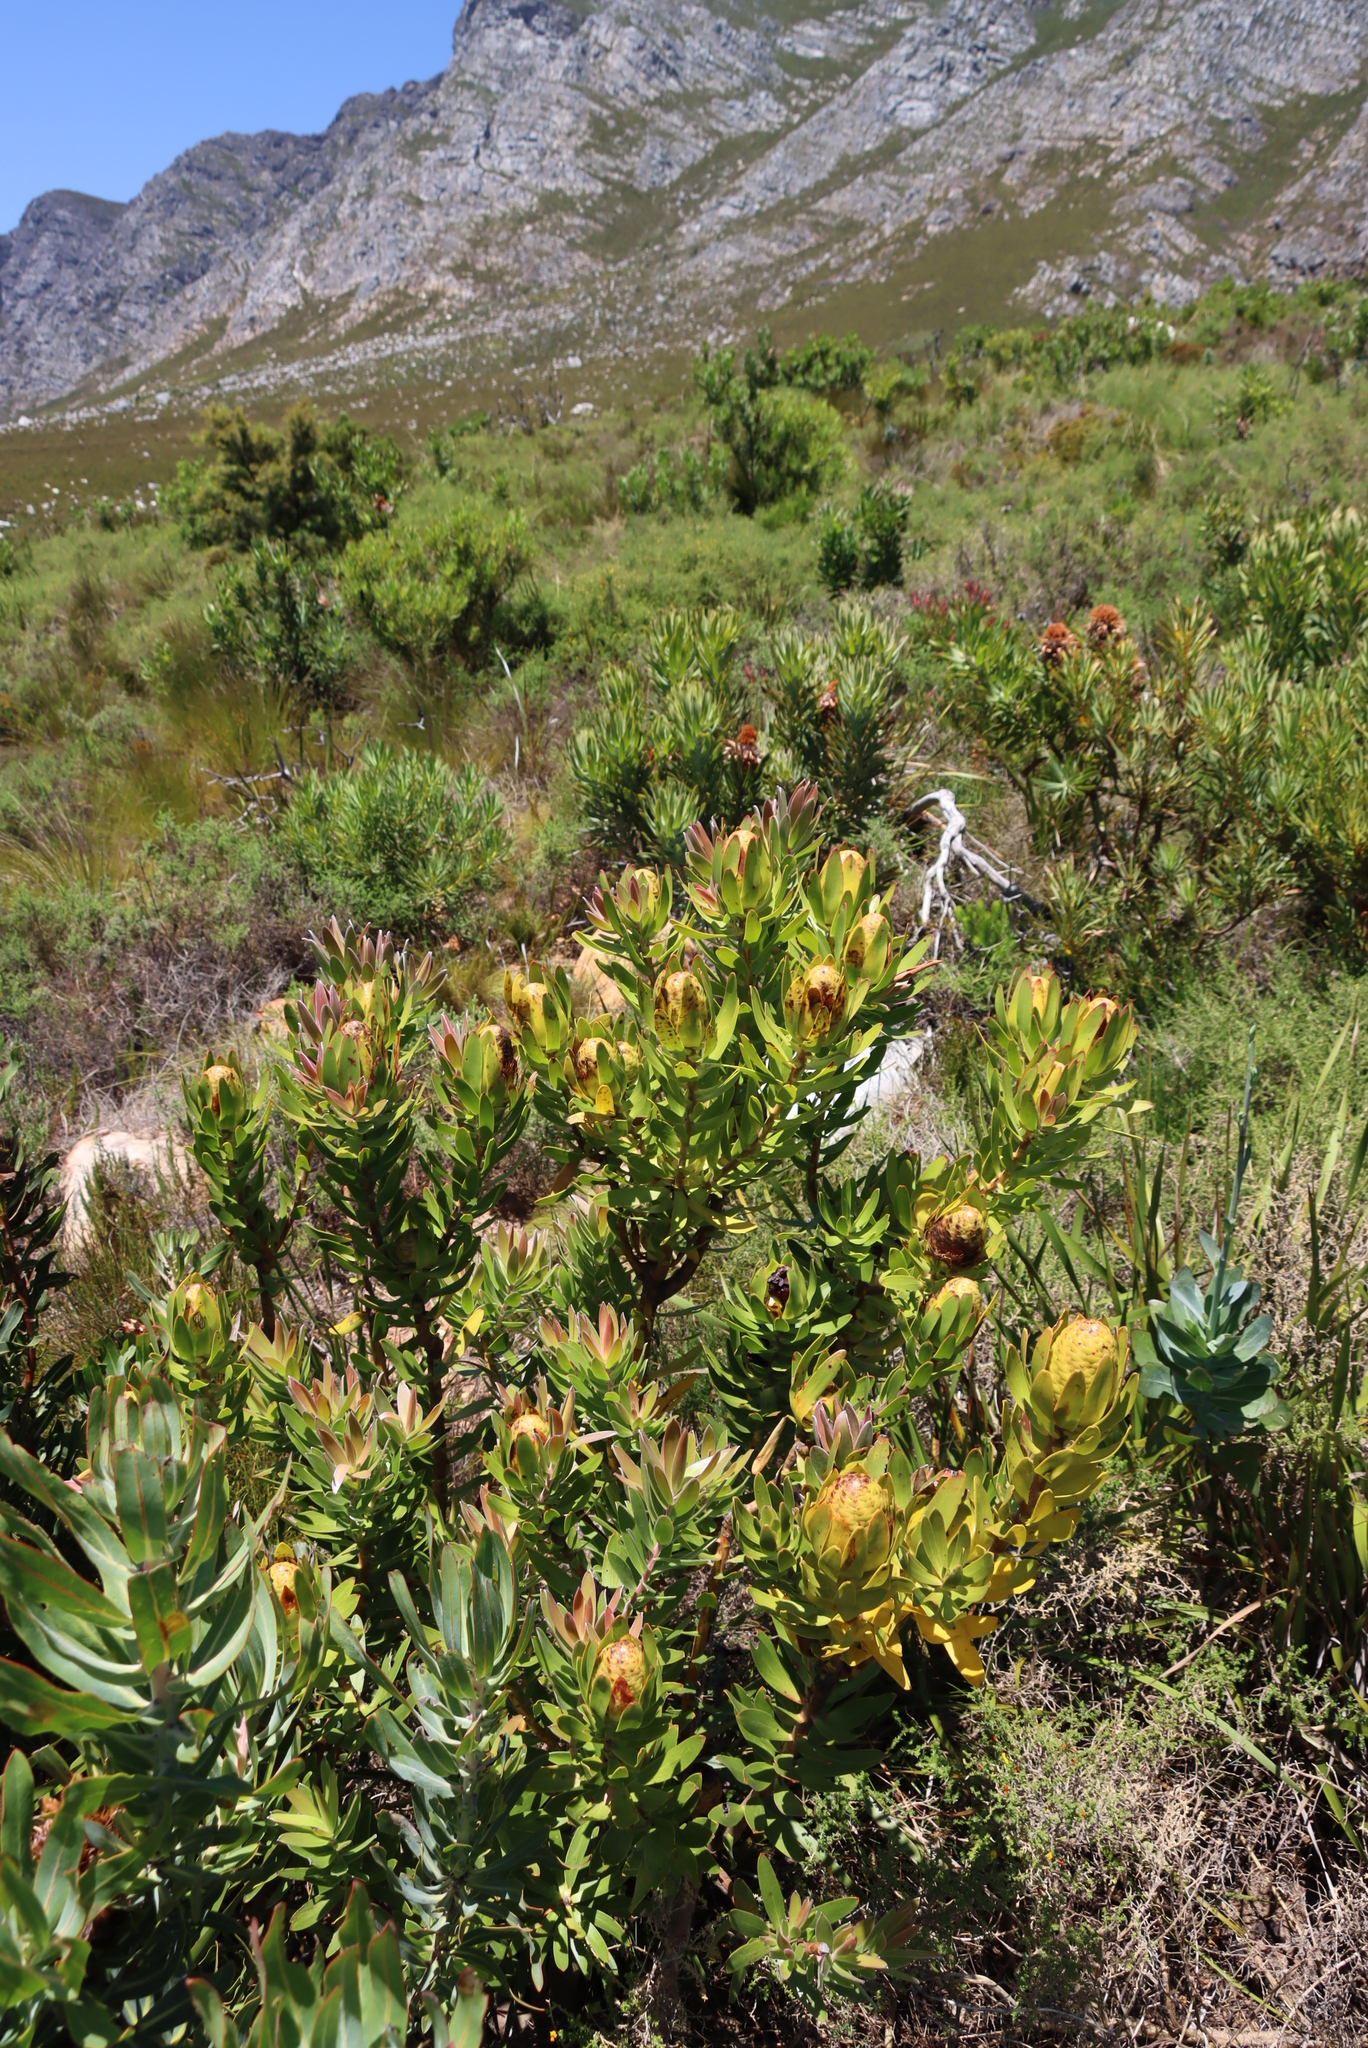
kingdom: Plantae
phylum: Tracheophyta
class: Magnoliopsida
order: Proteales
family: Proteaceae
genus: Leucadendron
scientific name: Leucadendron laureolum
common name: Golden sunshinebush
